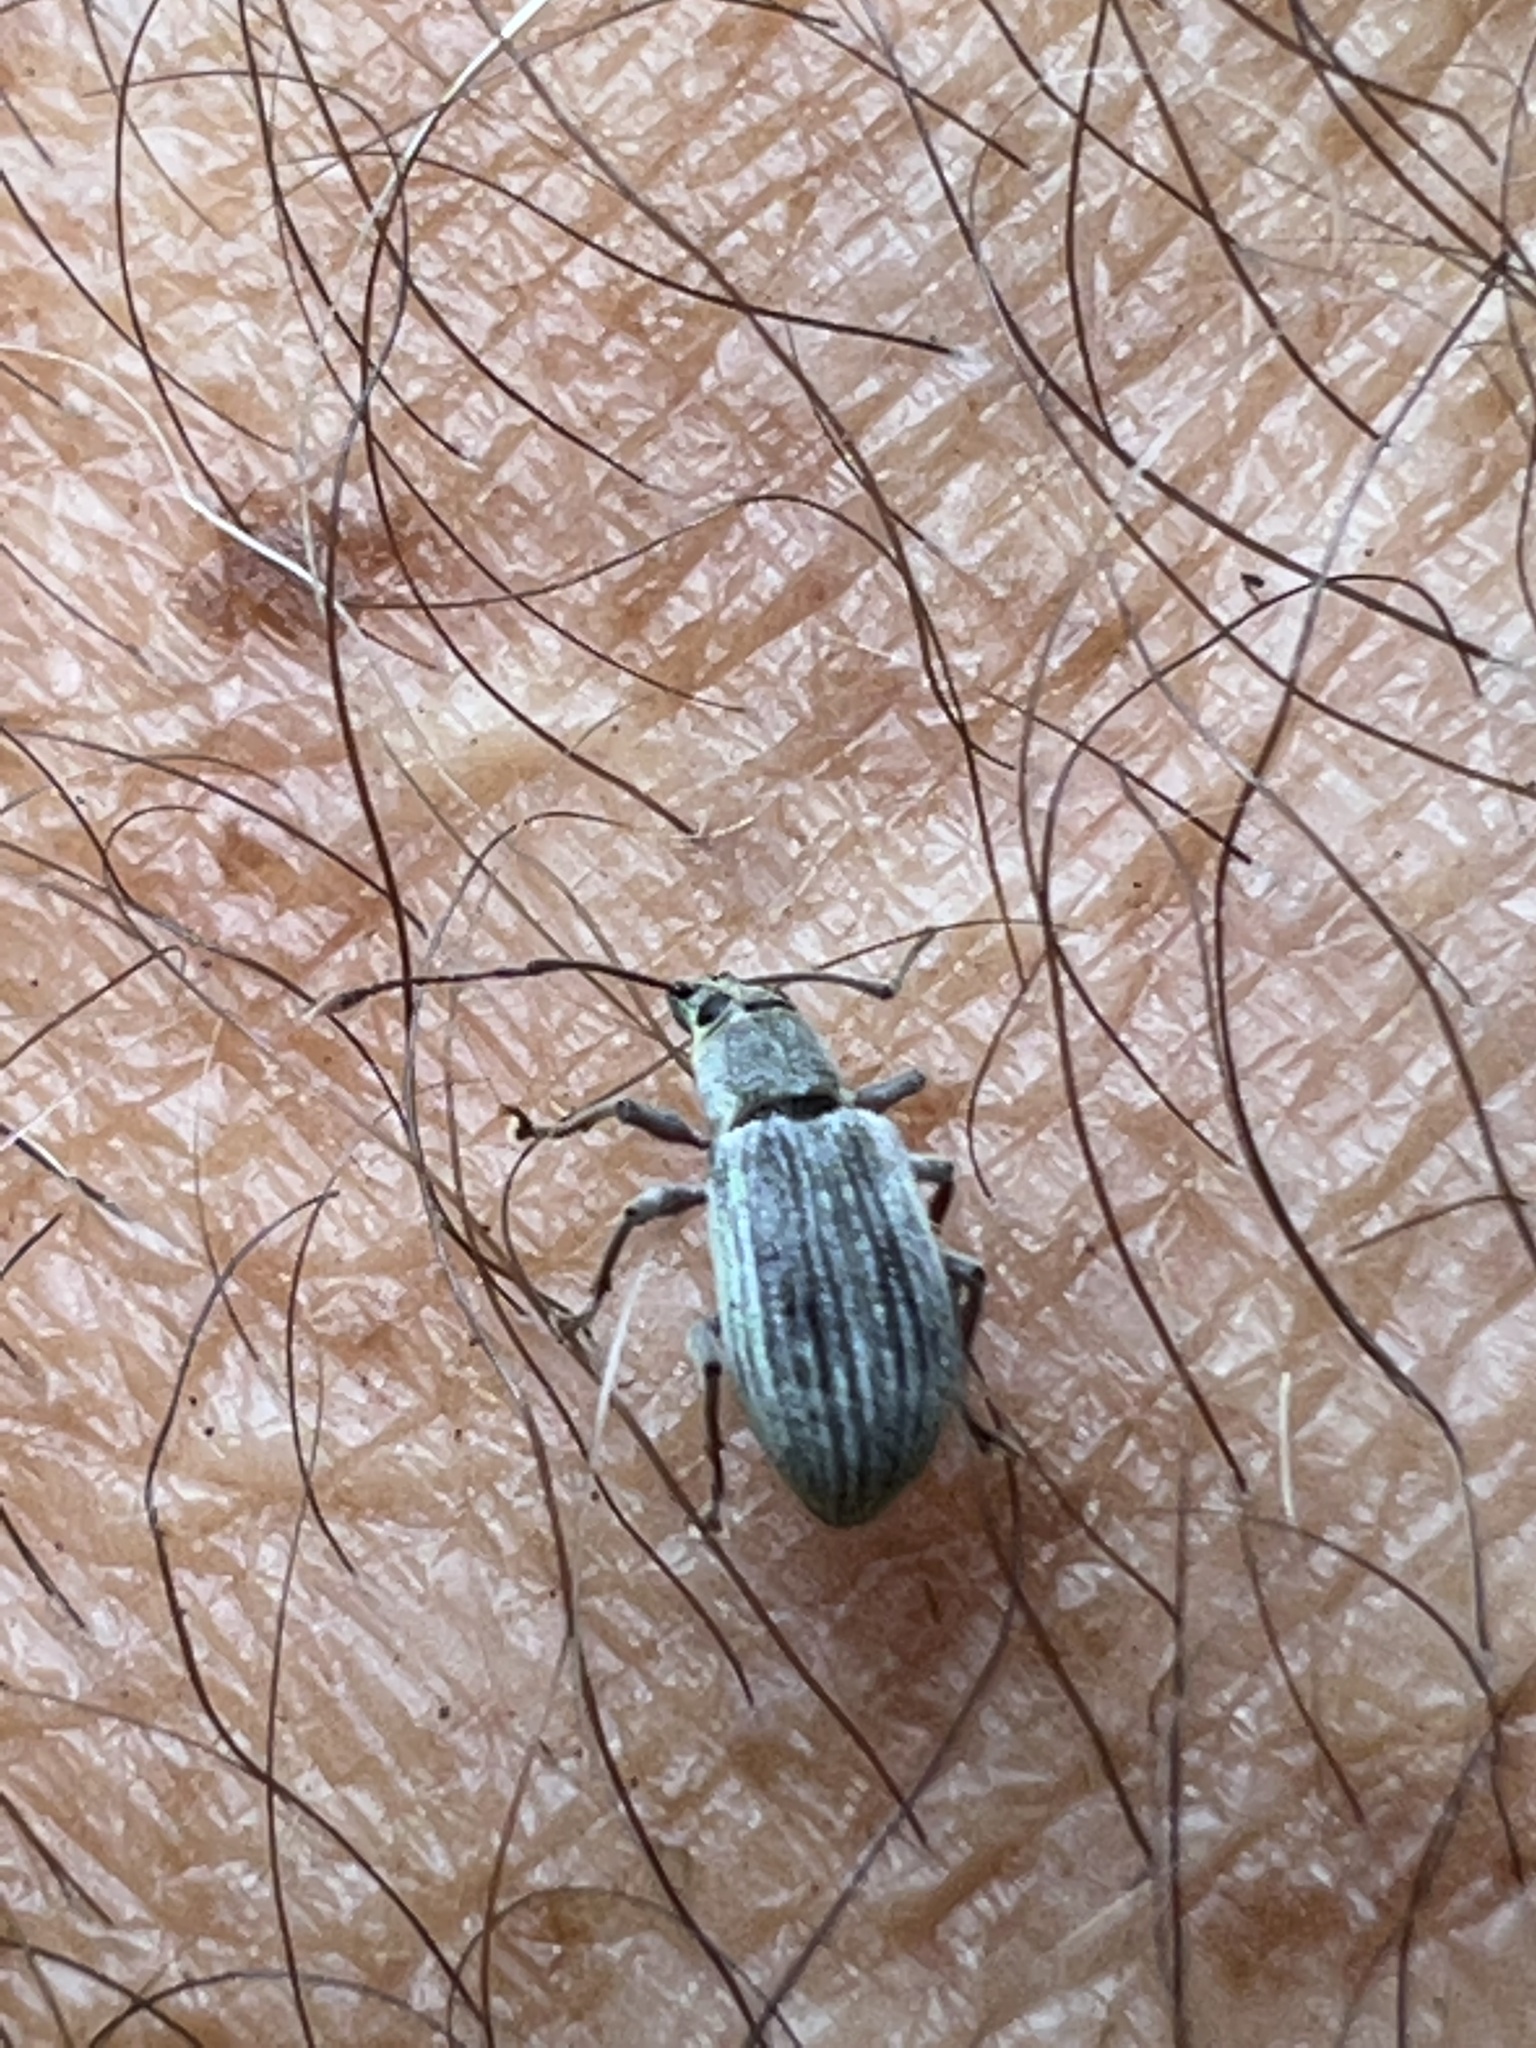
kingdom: Animalia
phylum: Arthropoda
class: Insecta
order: Coleoptera
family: Curculionidae
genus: Cyrtepistomus
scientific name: Cyrtepistomus castaneus
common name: Weevil
